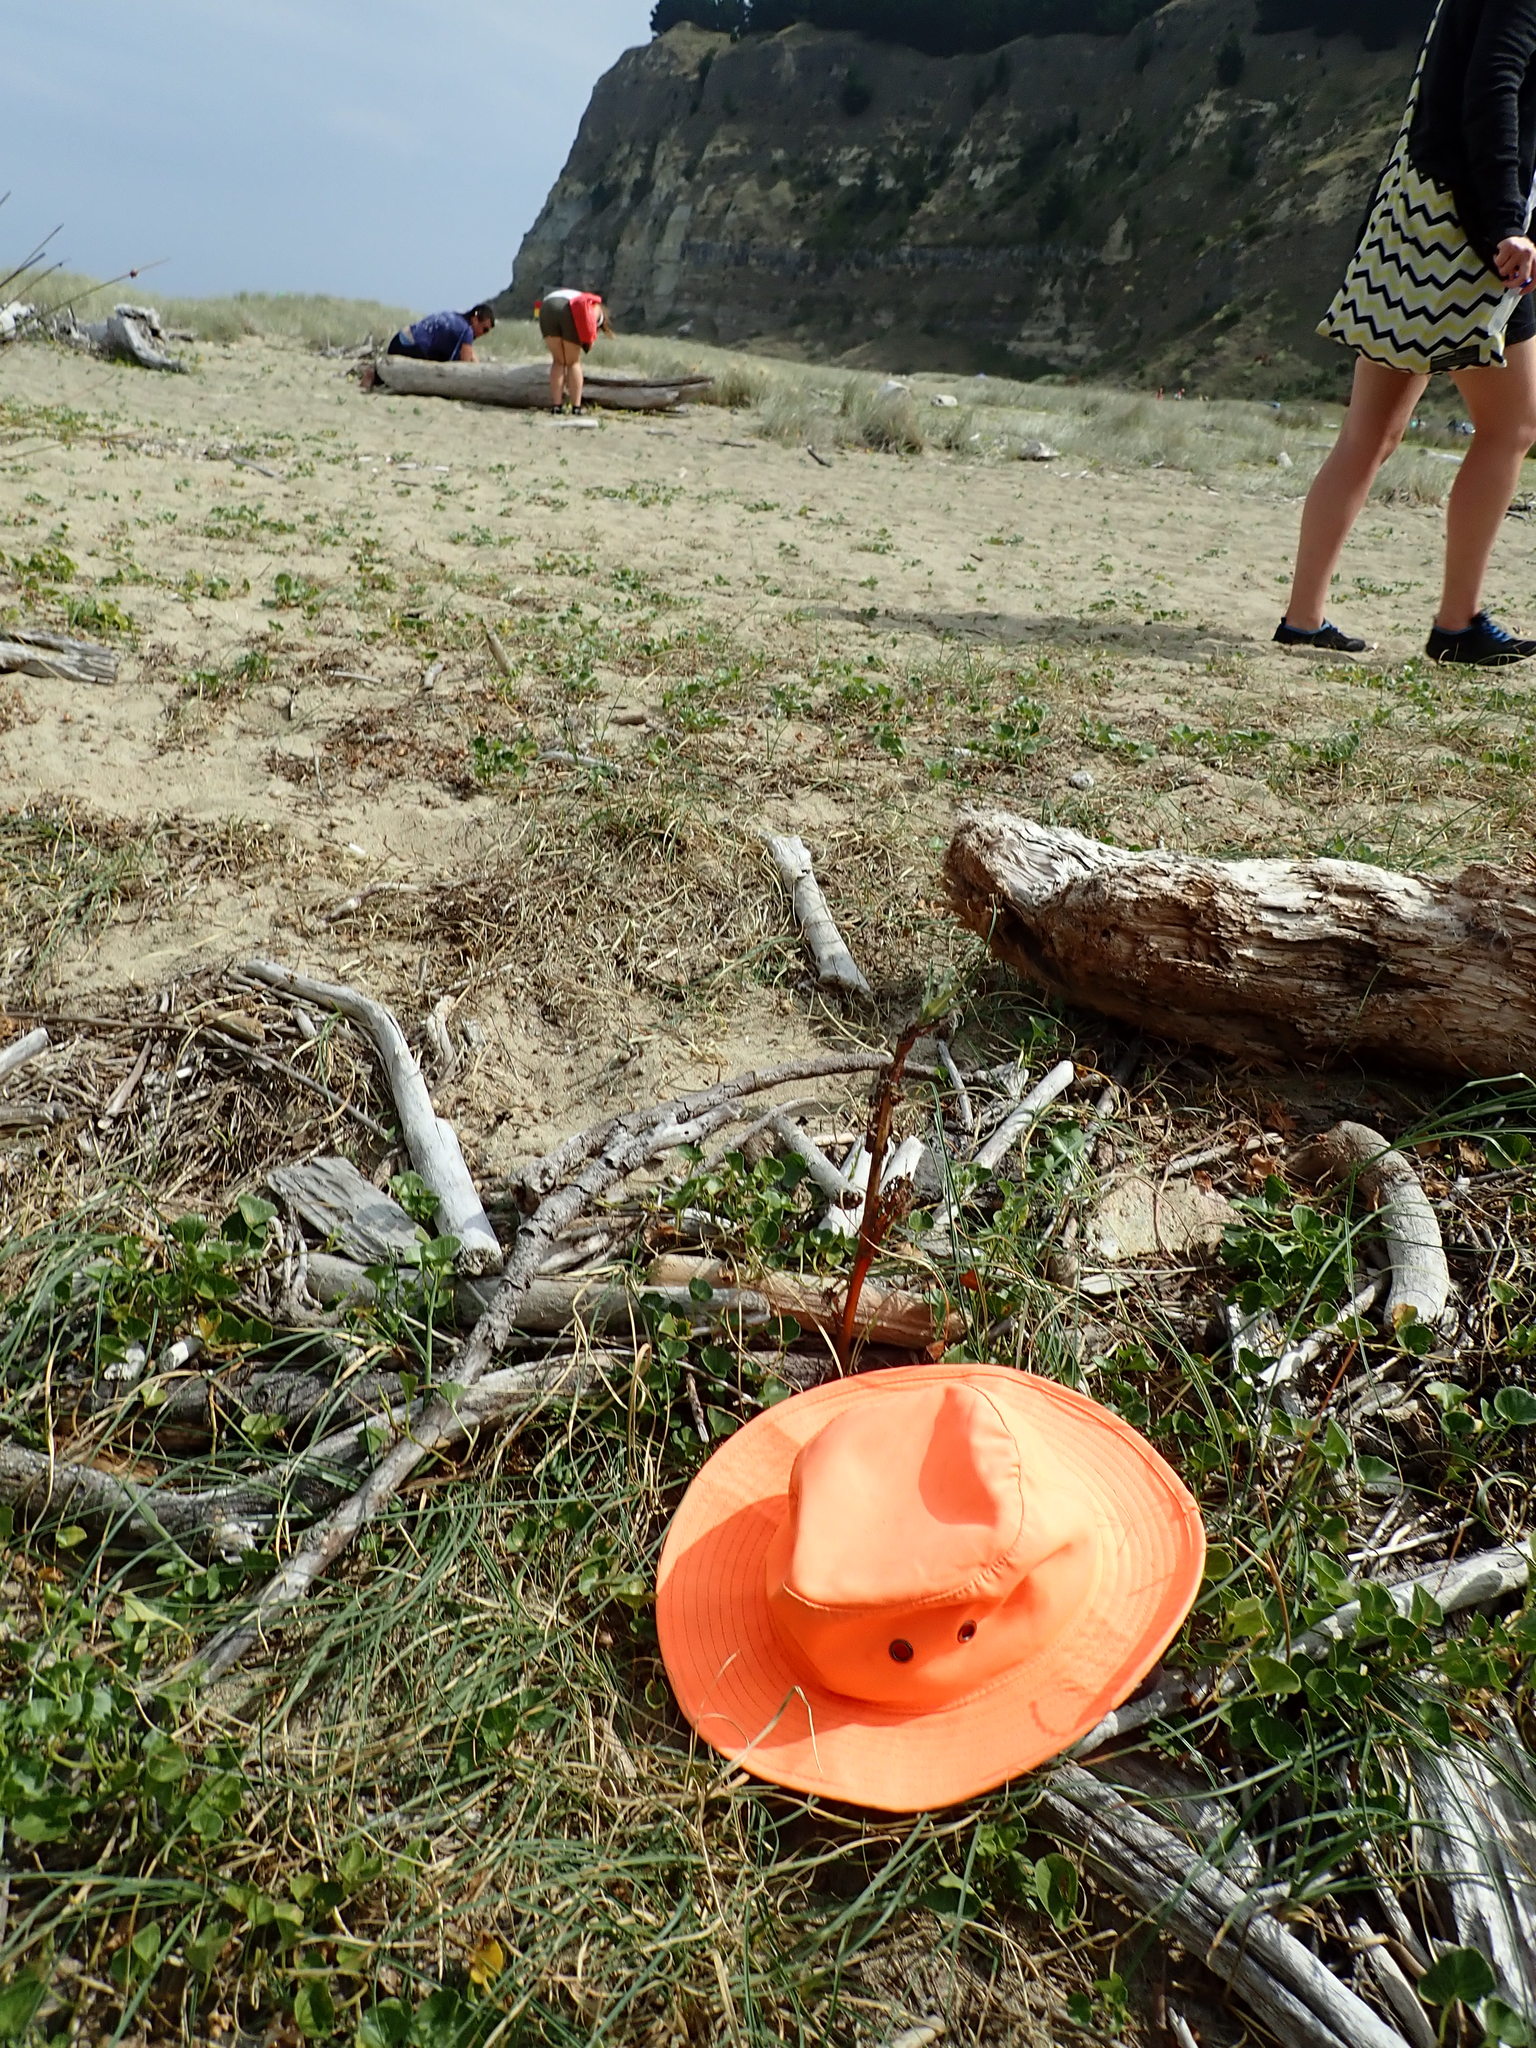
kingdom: Plantae
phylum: Tracheophyta
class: Liliopsida
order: Poales
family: Cyperaceae
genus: Carex
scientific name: Carex pumila
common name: Dwarf sedge
